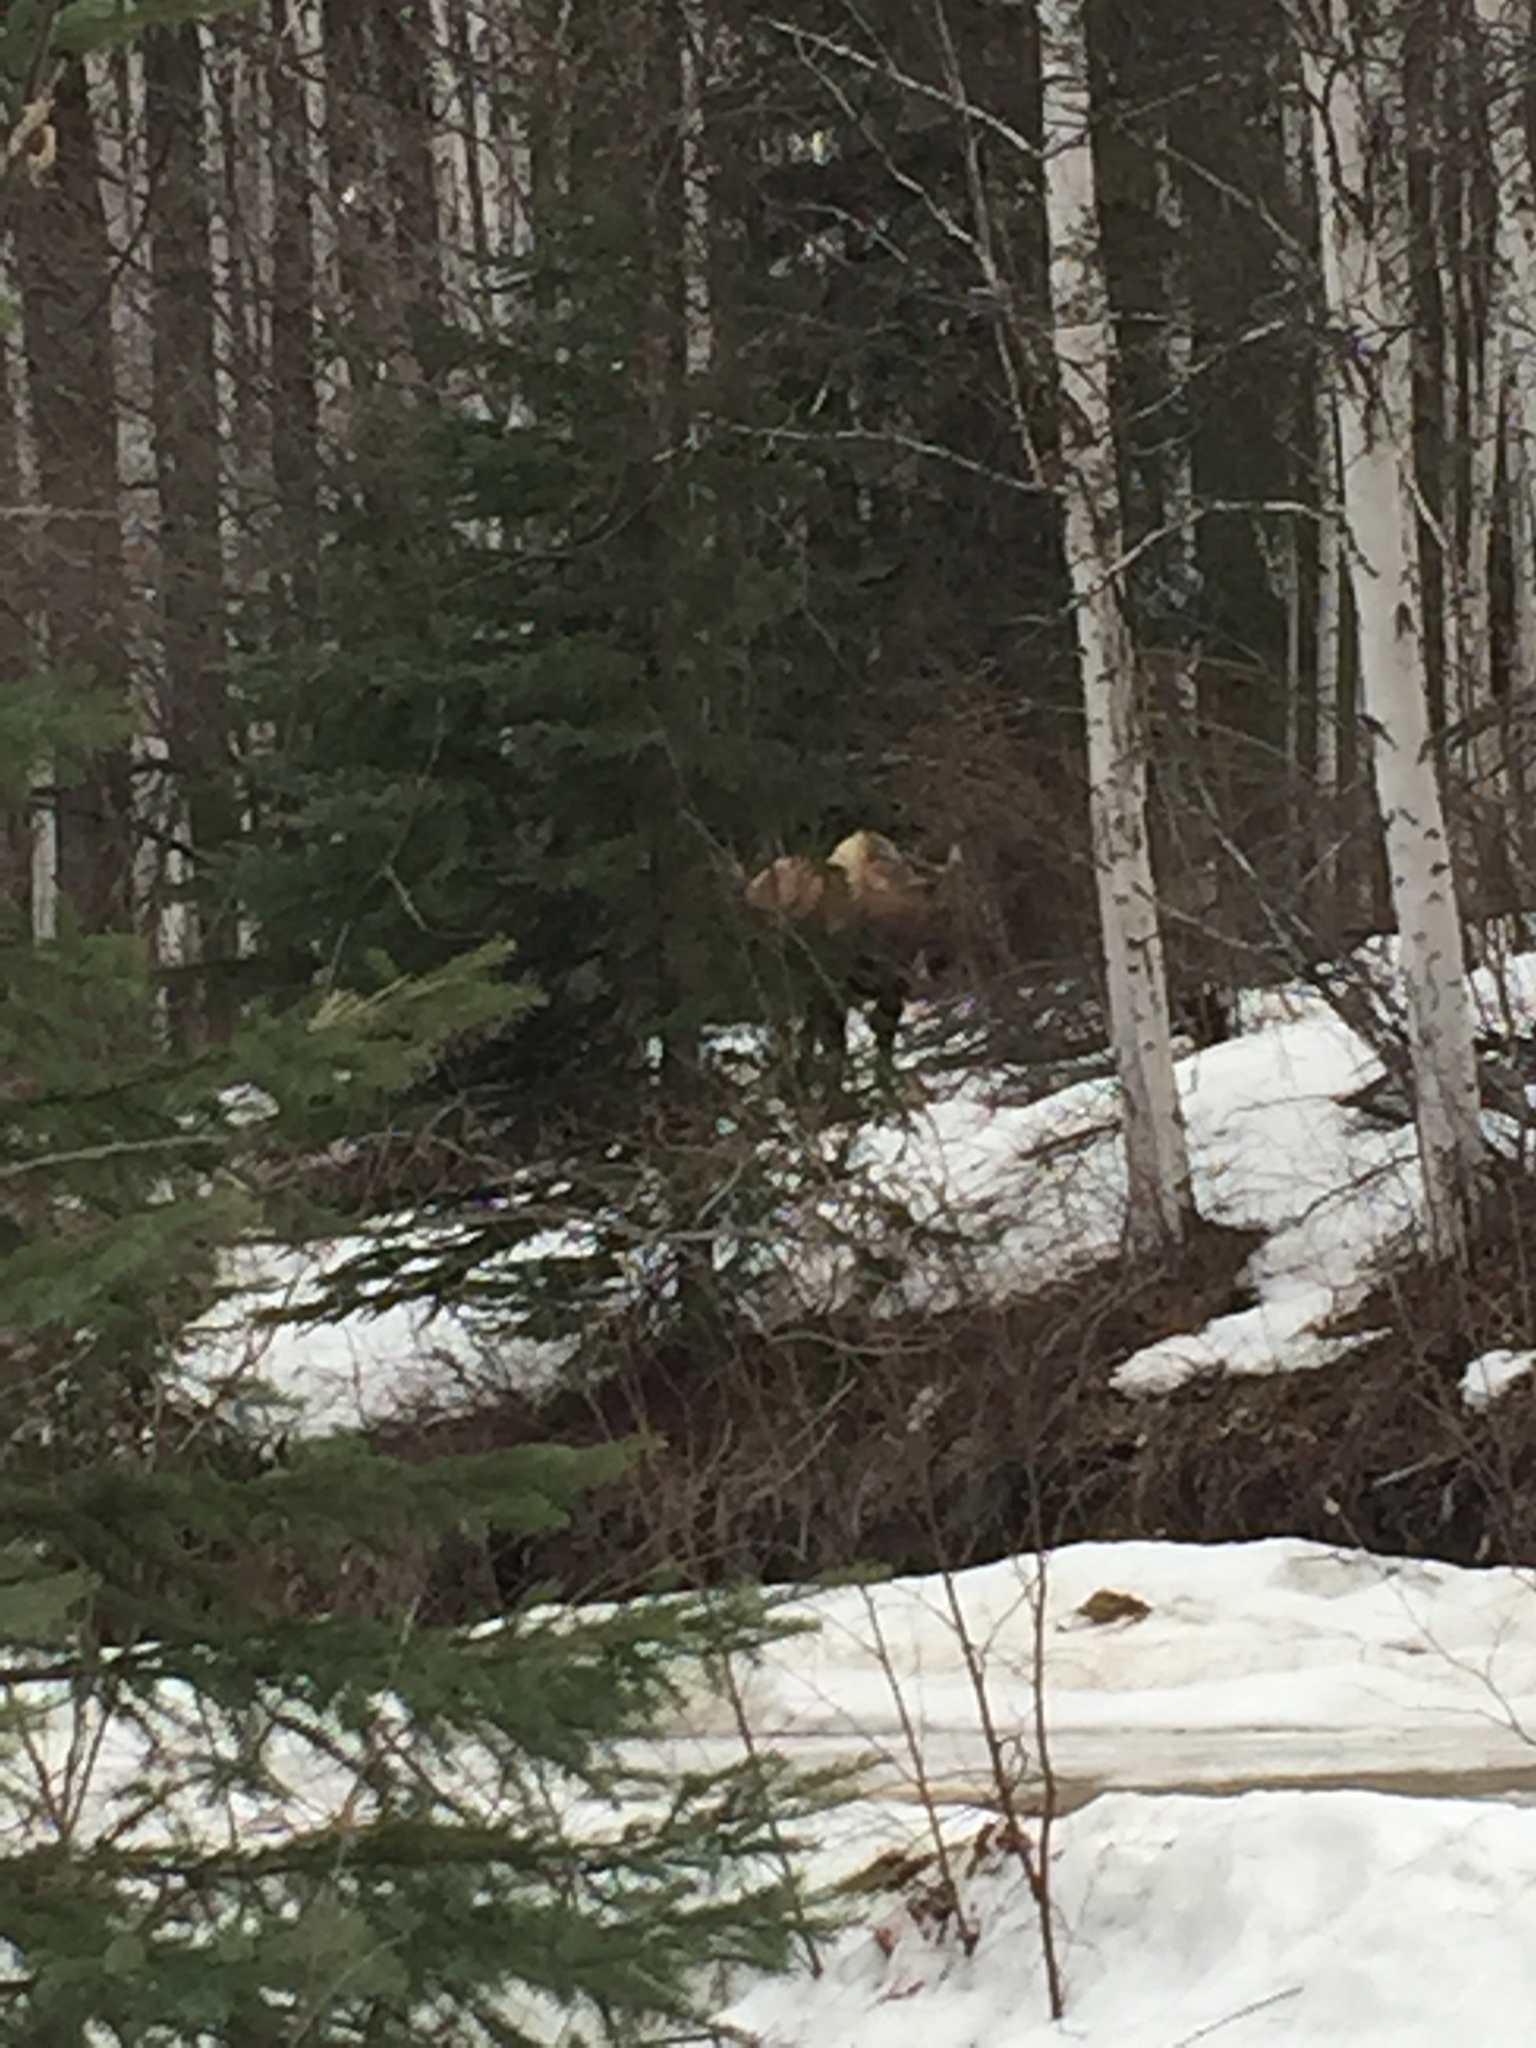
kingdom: Animalia
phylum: Chordata
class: Mammalia
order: Artiodactyla
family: Cervidae
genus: Alces
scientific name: Alces alces
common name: Moose
